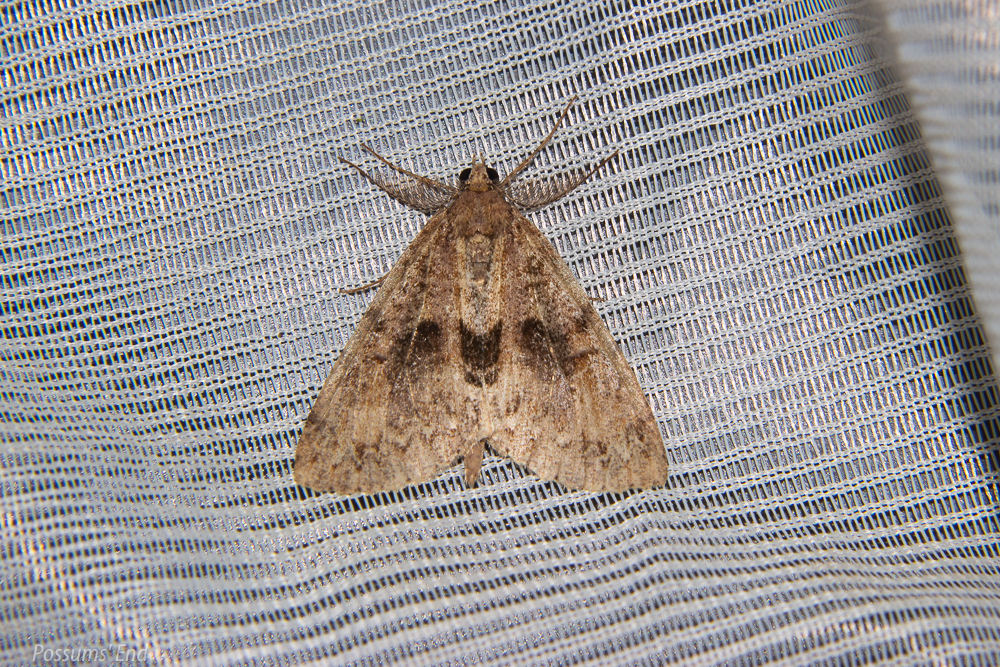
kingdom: Animalia
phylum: Arthropoda
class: Insecta
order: Lepidoptera
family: Geometridae
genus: Pseudocoremia
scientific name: Pseudocoremia suavis
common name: Common forest looper
